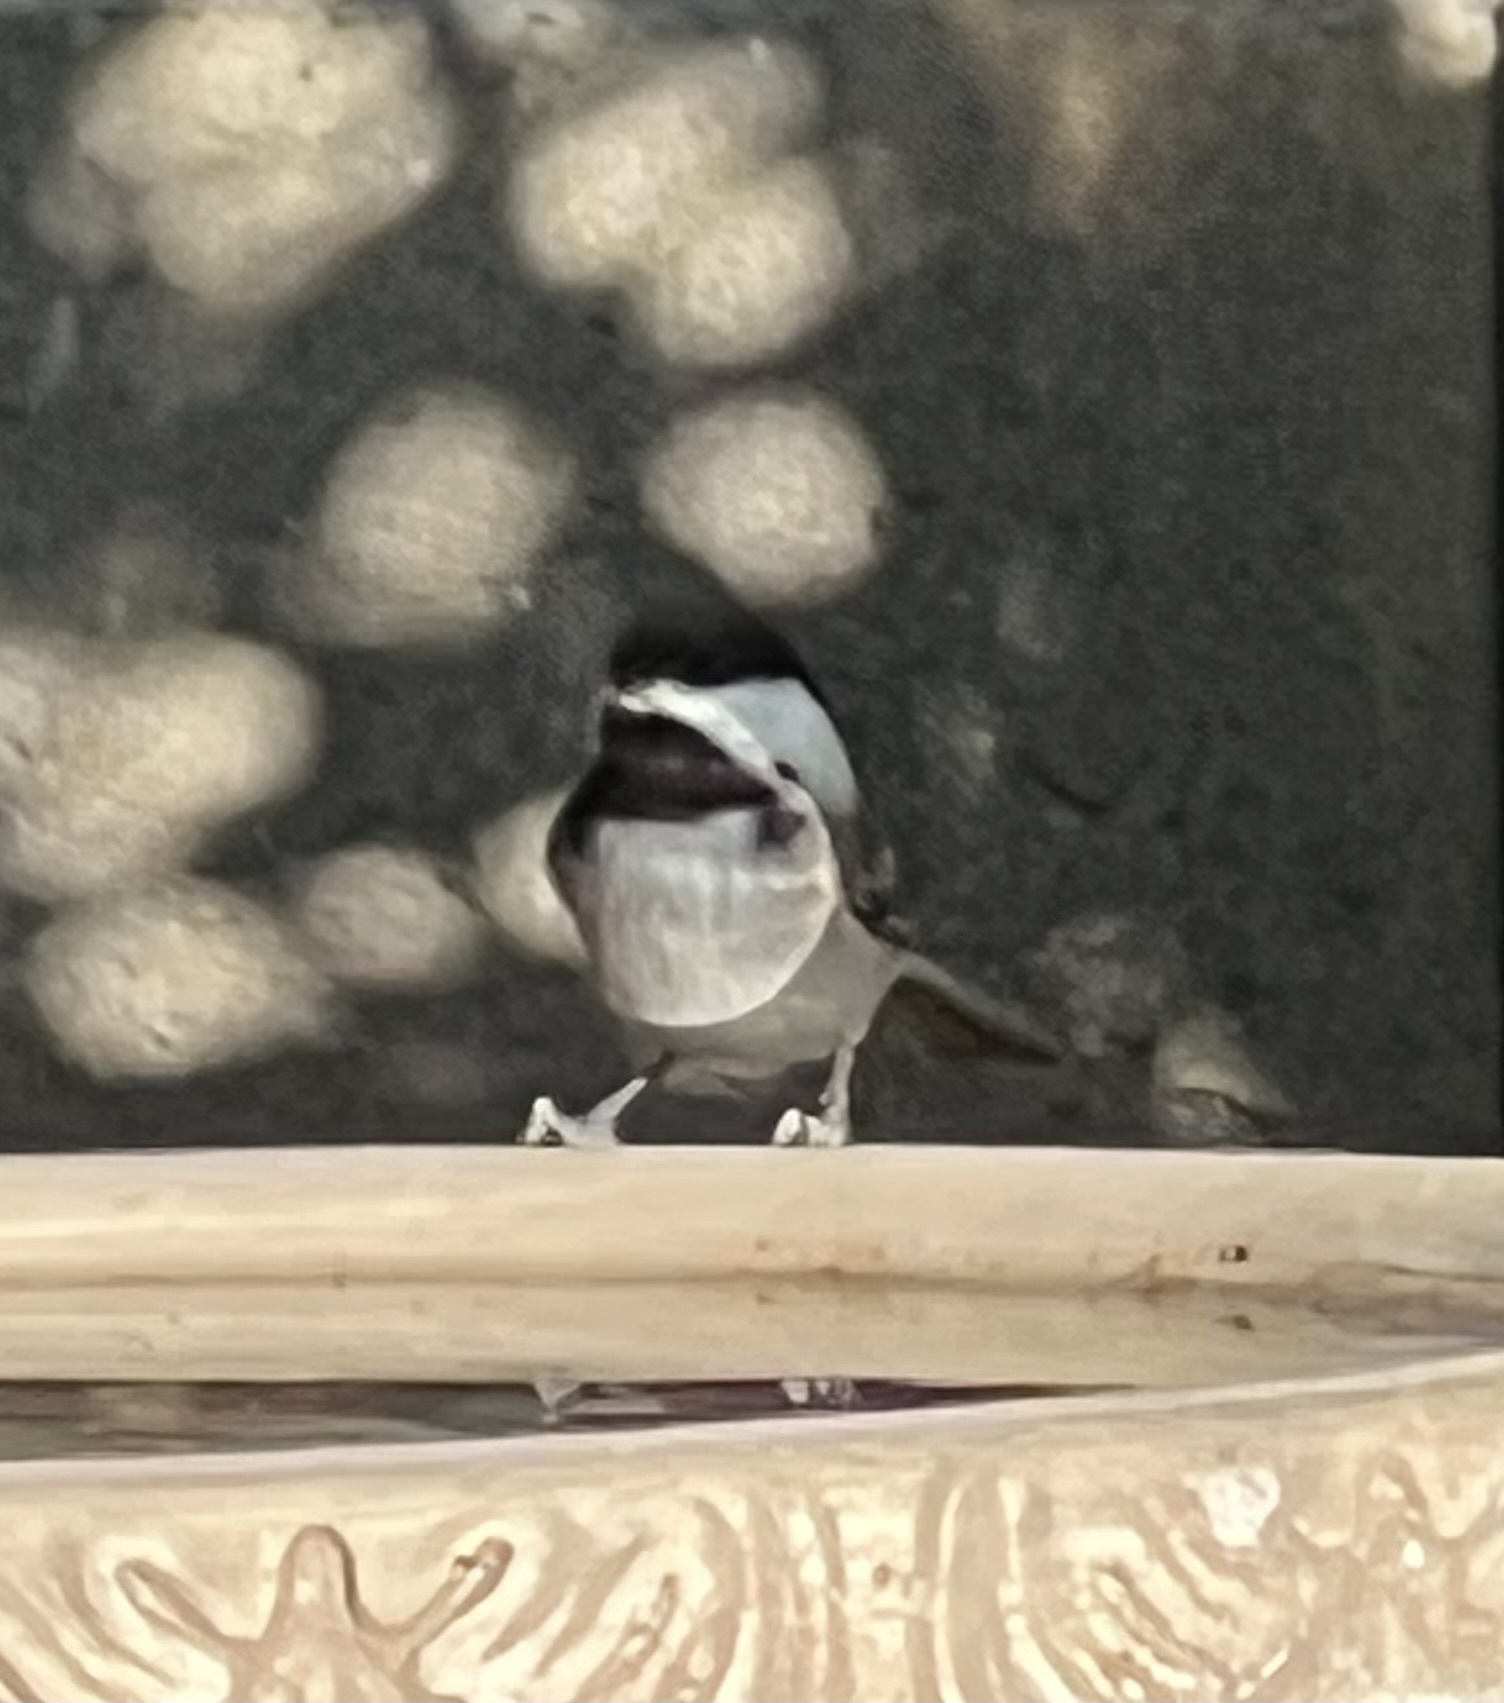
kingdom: Animalia
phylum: Chordata
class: Aves
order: Passeriformes
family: Paridae
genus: Poecile
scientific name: Poecile rufescens
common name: Chestnut-backed chickadee
